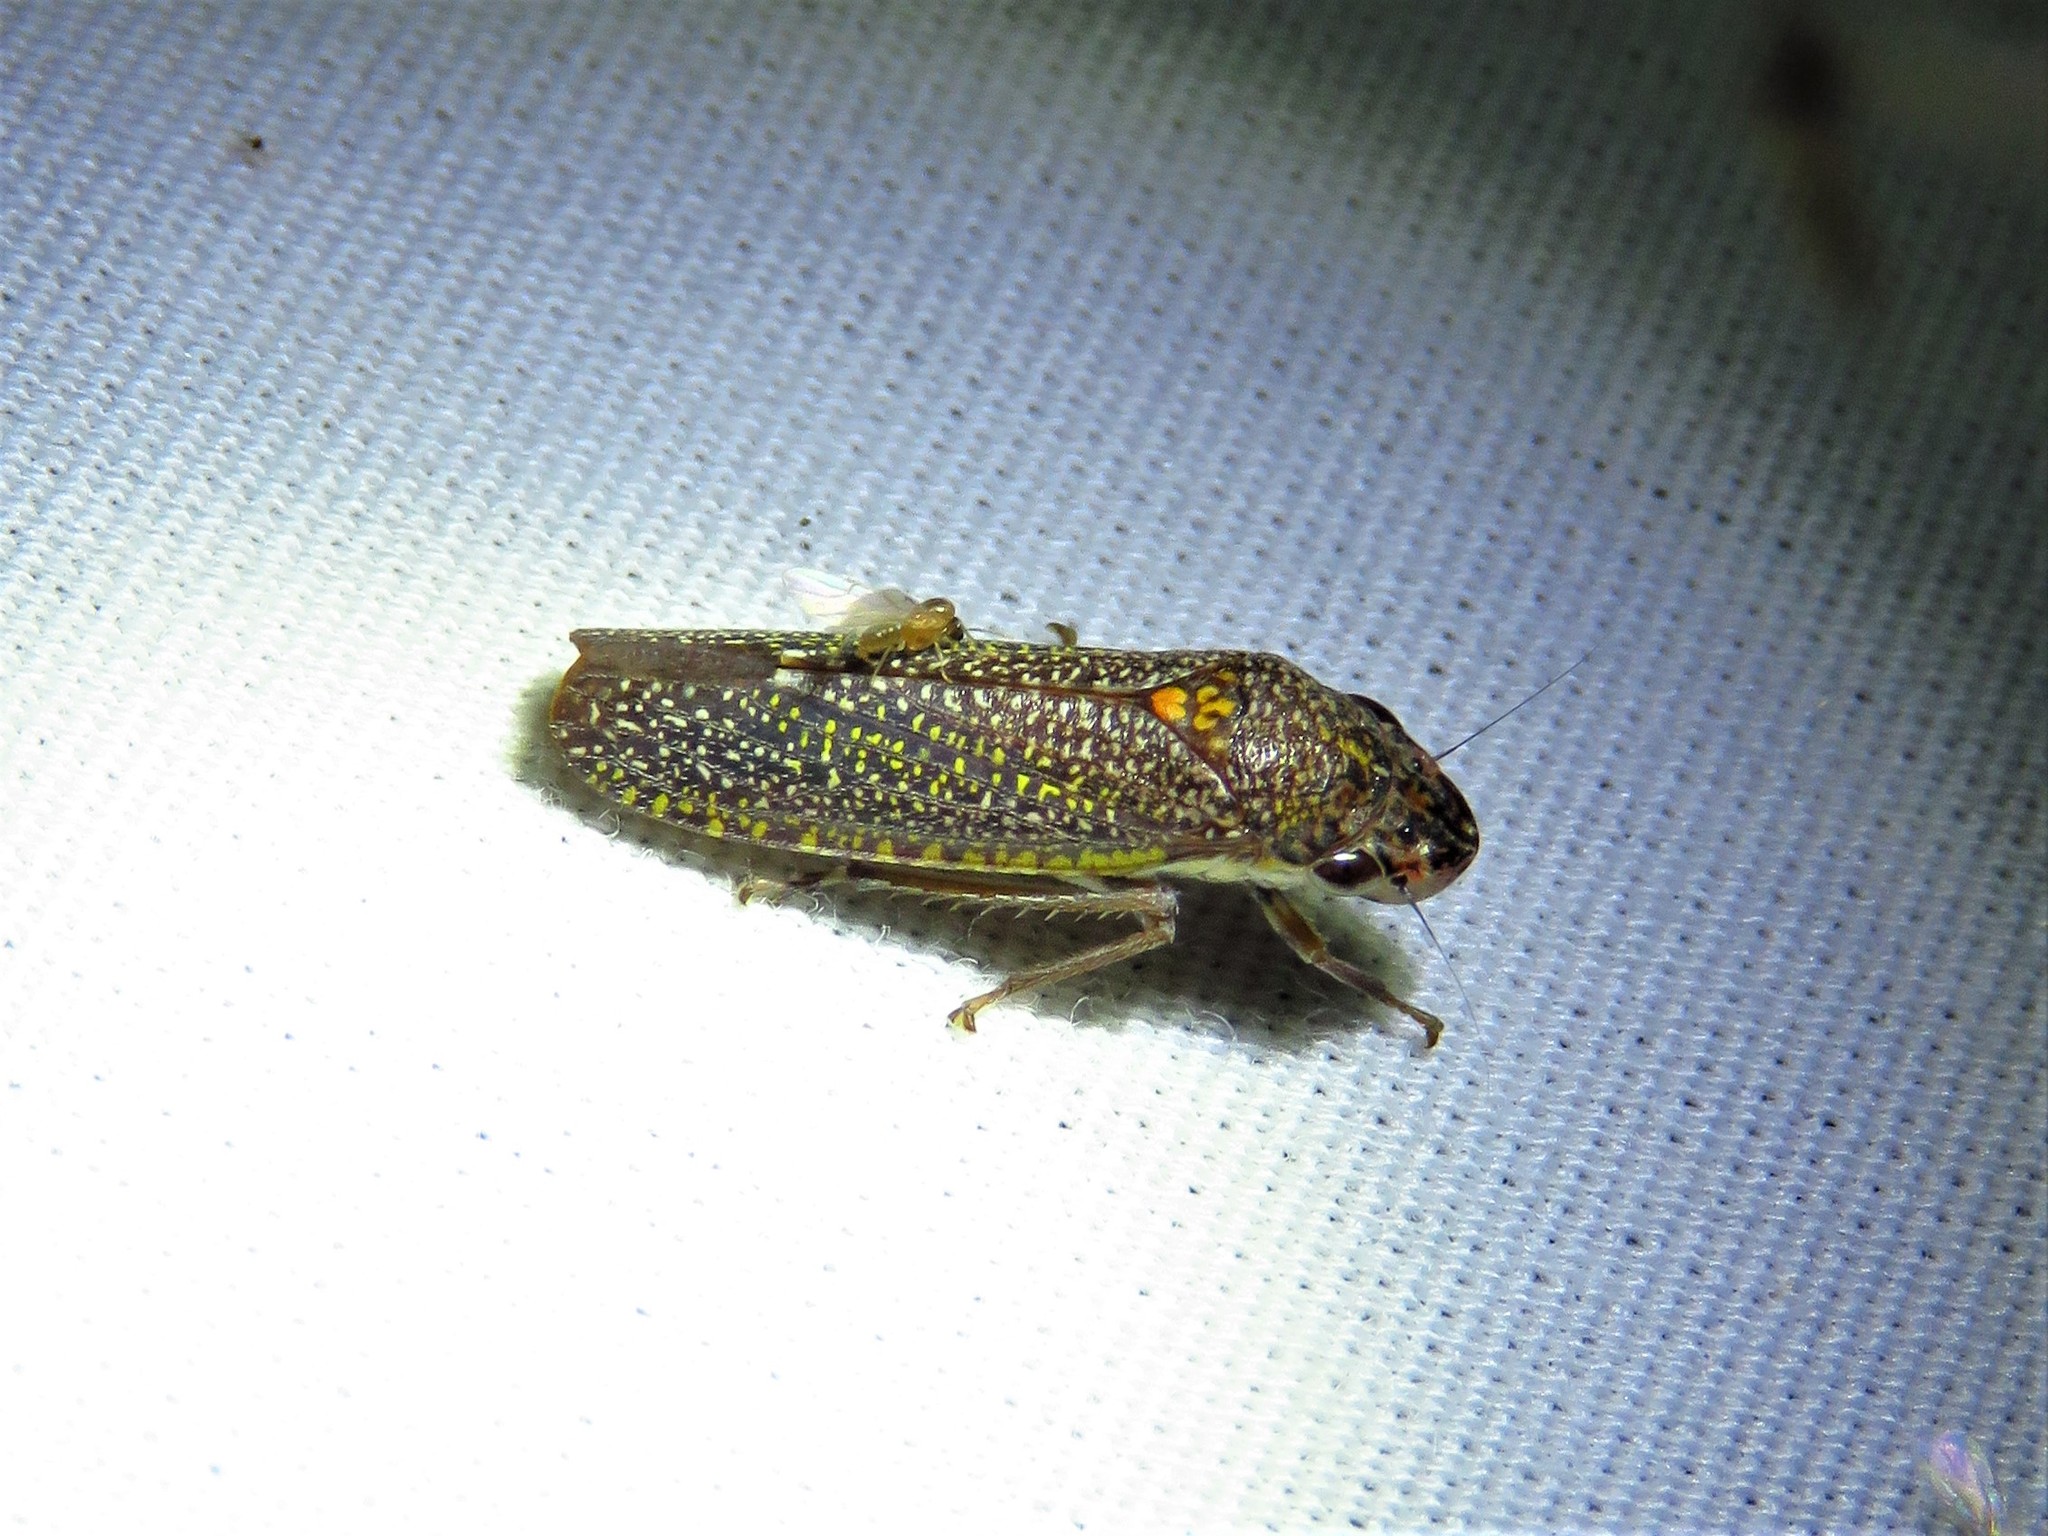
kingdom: Animalia
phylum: Arthropoda
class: Insecta
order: Hemiptera
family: Cicadellidae
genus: Paraulacizes
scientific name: Paraulacizes irrorata
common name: Speckled sharpshooter
